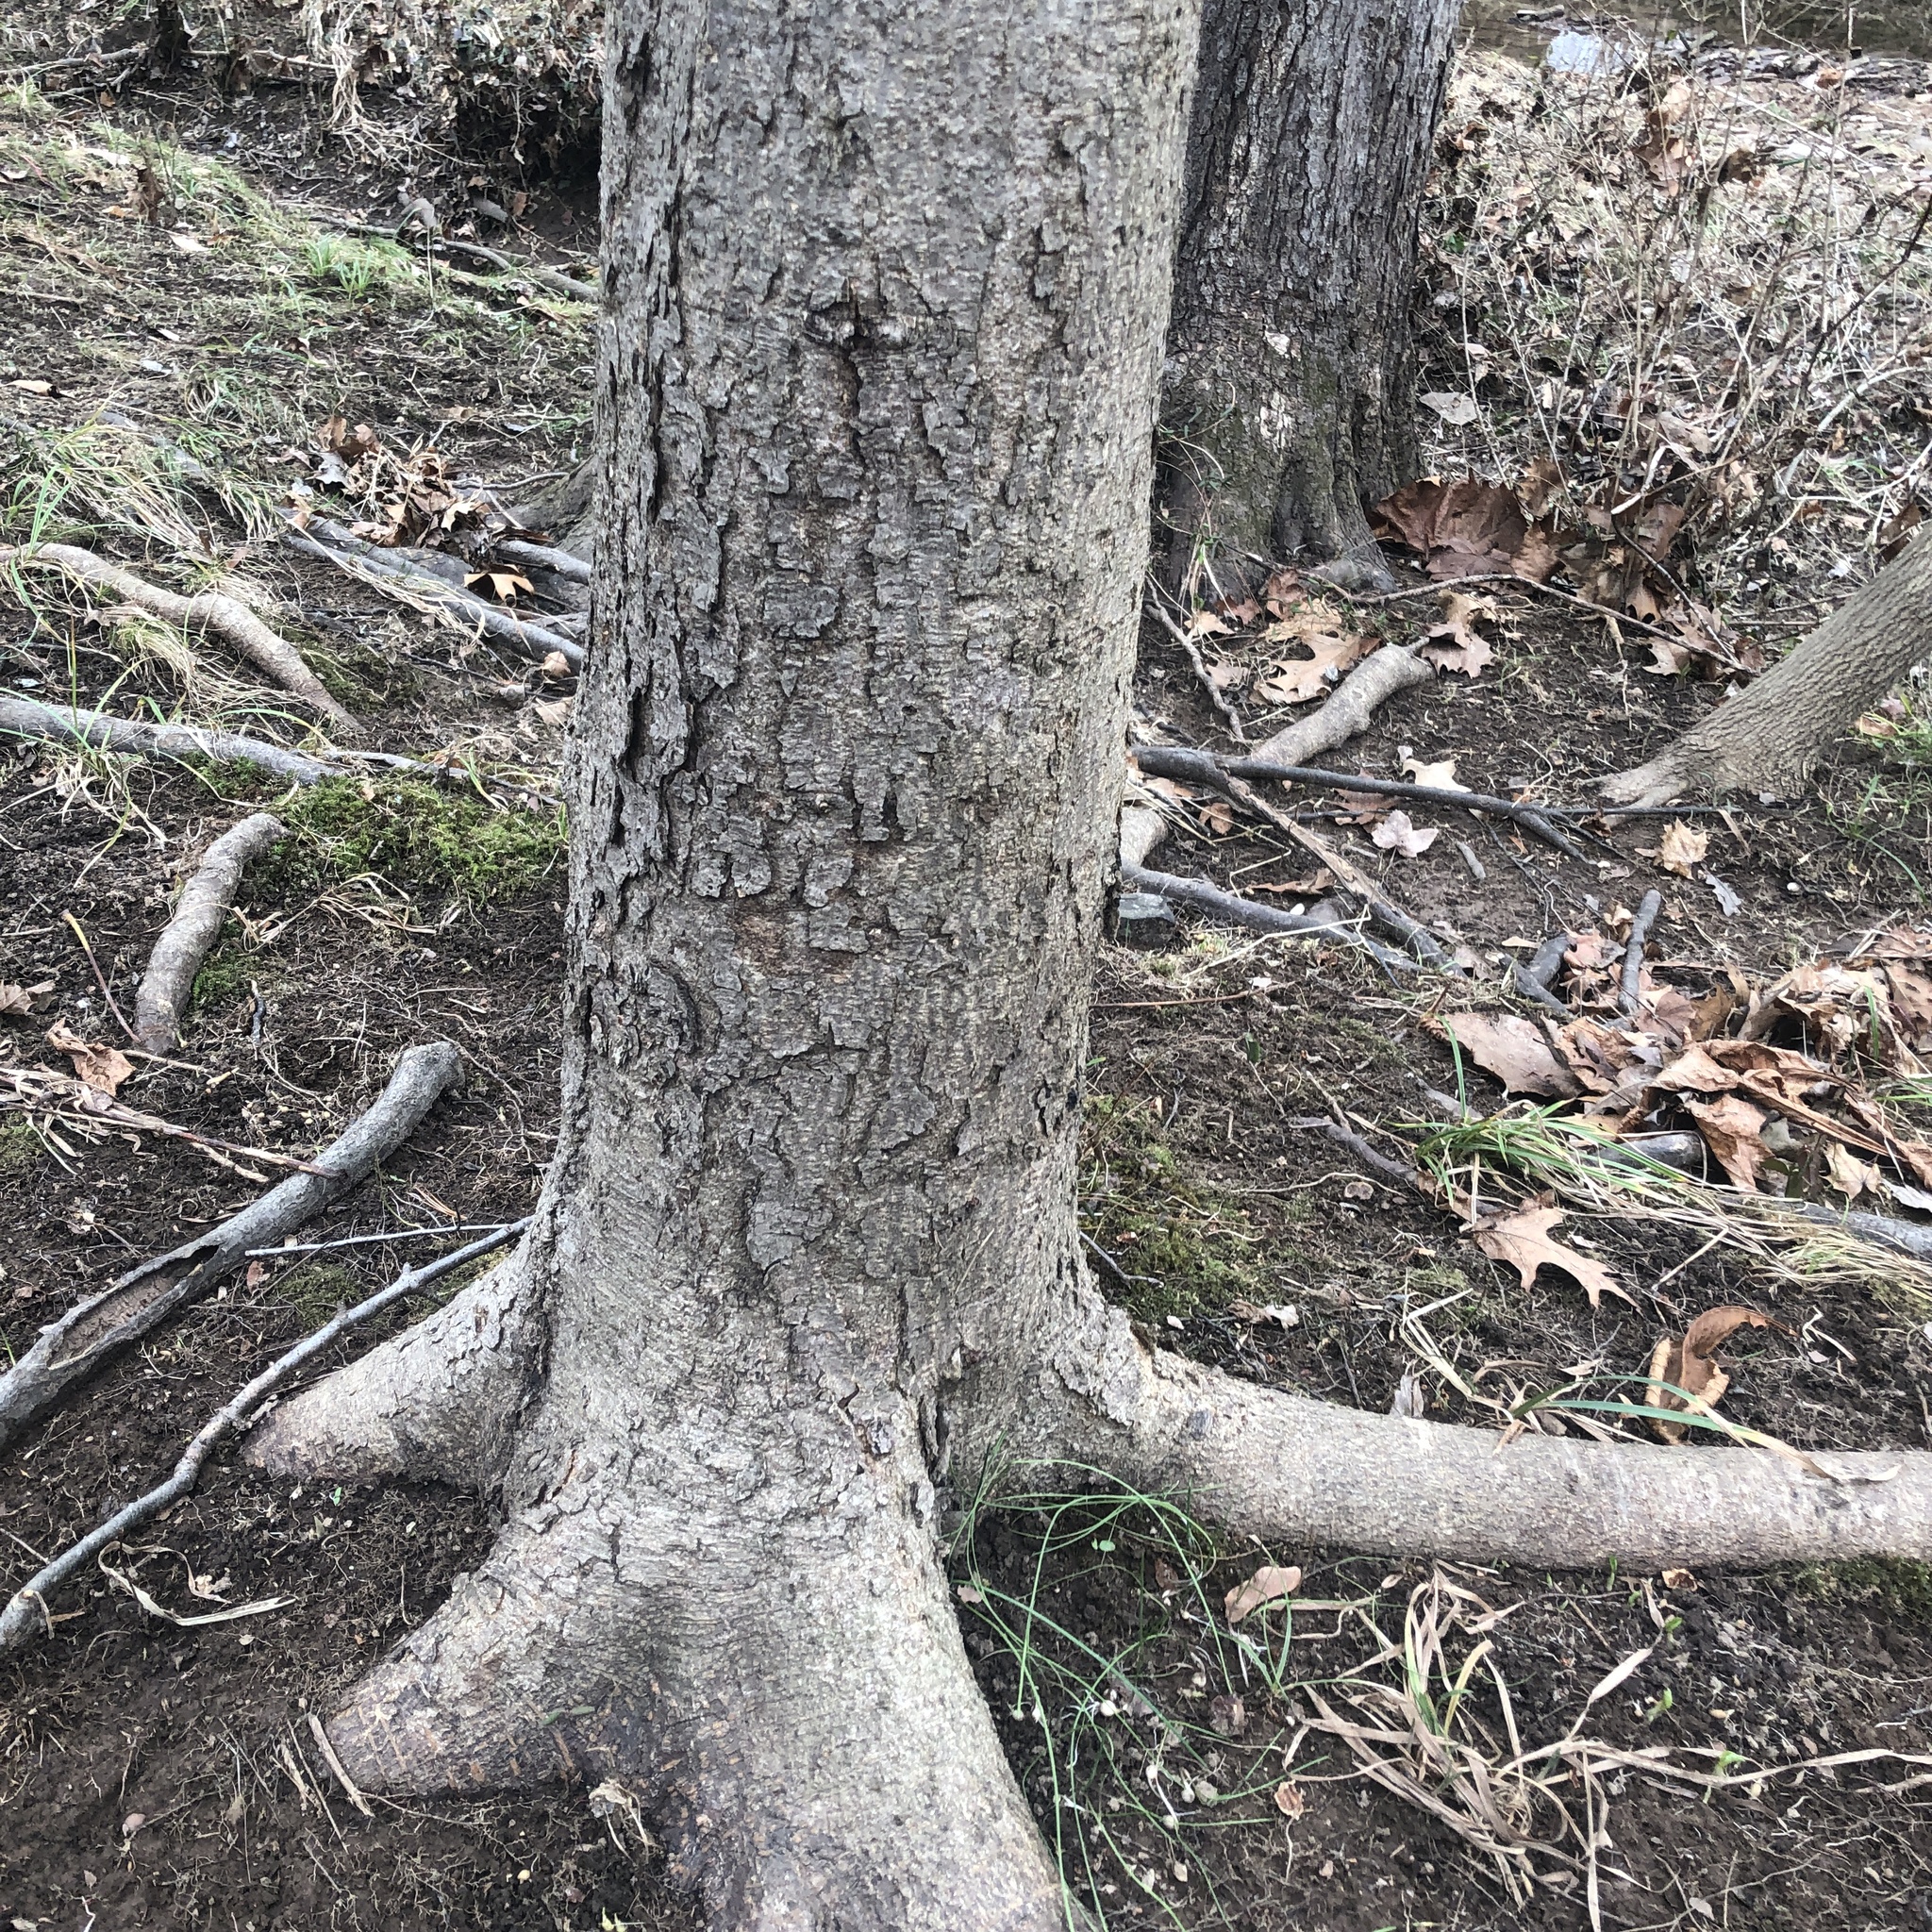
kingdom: Plantae
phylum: Tracheophyta
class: Magnoliopsida
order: Sapindales
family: Sapindaceae
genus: Aesculus
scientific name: Aesculus hippocastanum
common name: Horse-chestnut
